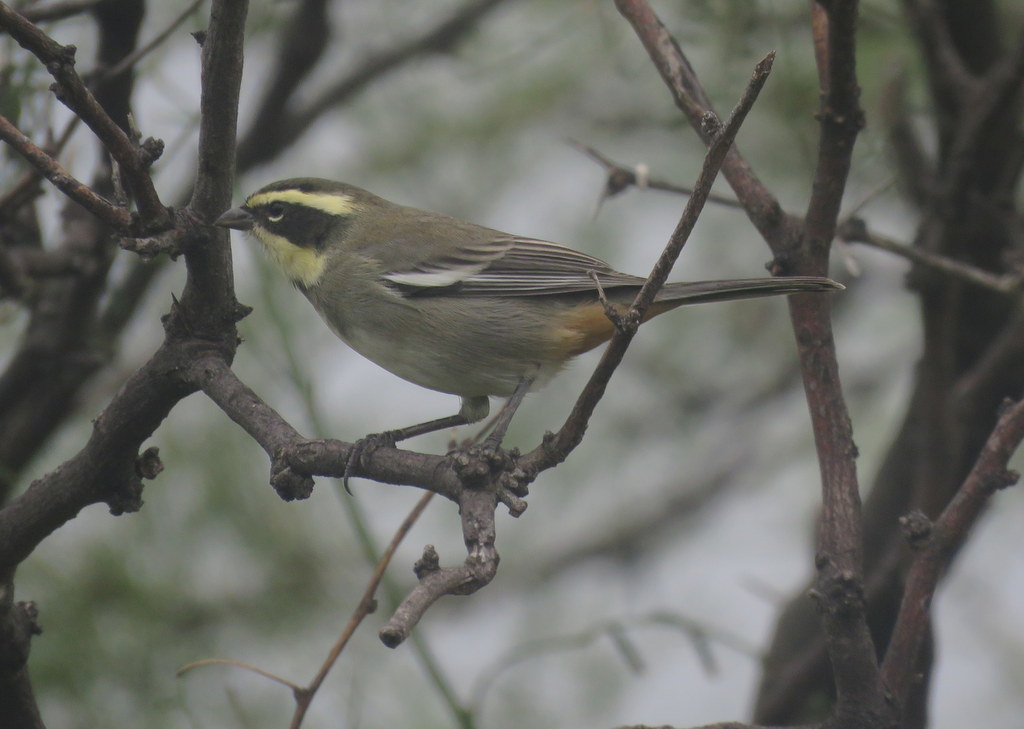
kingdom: Animalia
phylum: Chordata
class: Aves
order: Passeriformes
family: Thraupidae
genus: Microspingus
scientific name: Microspingus torquatus
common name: Ringed warbling-finch
